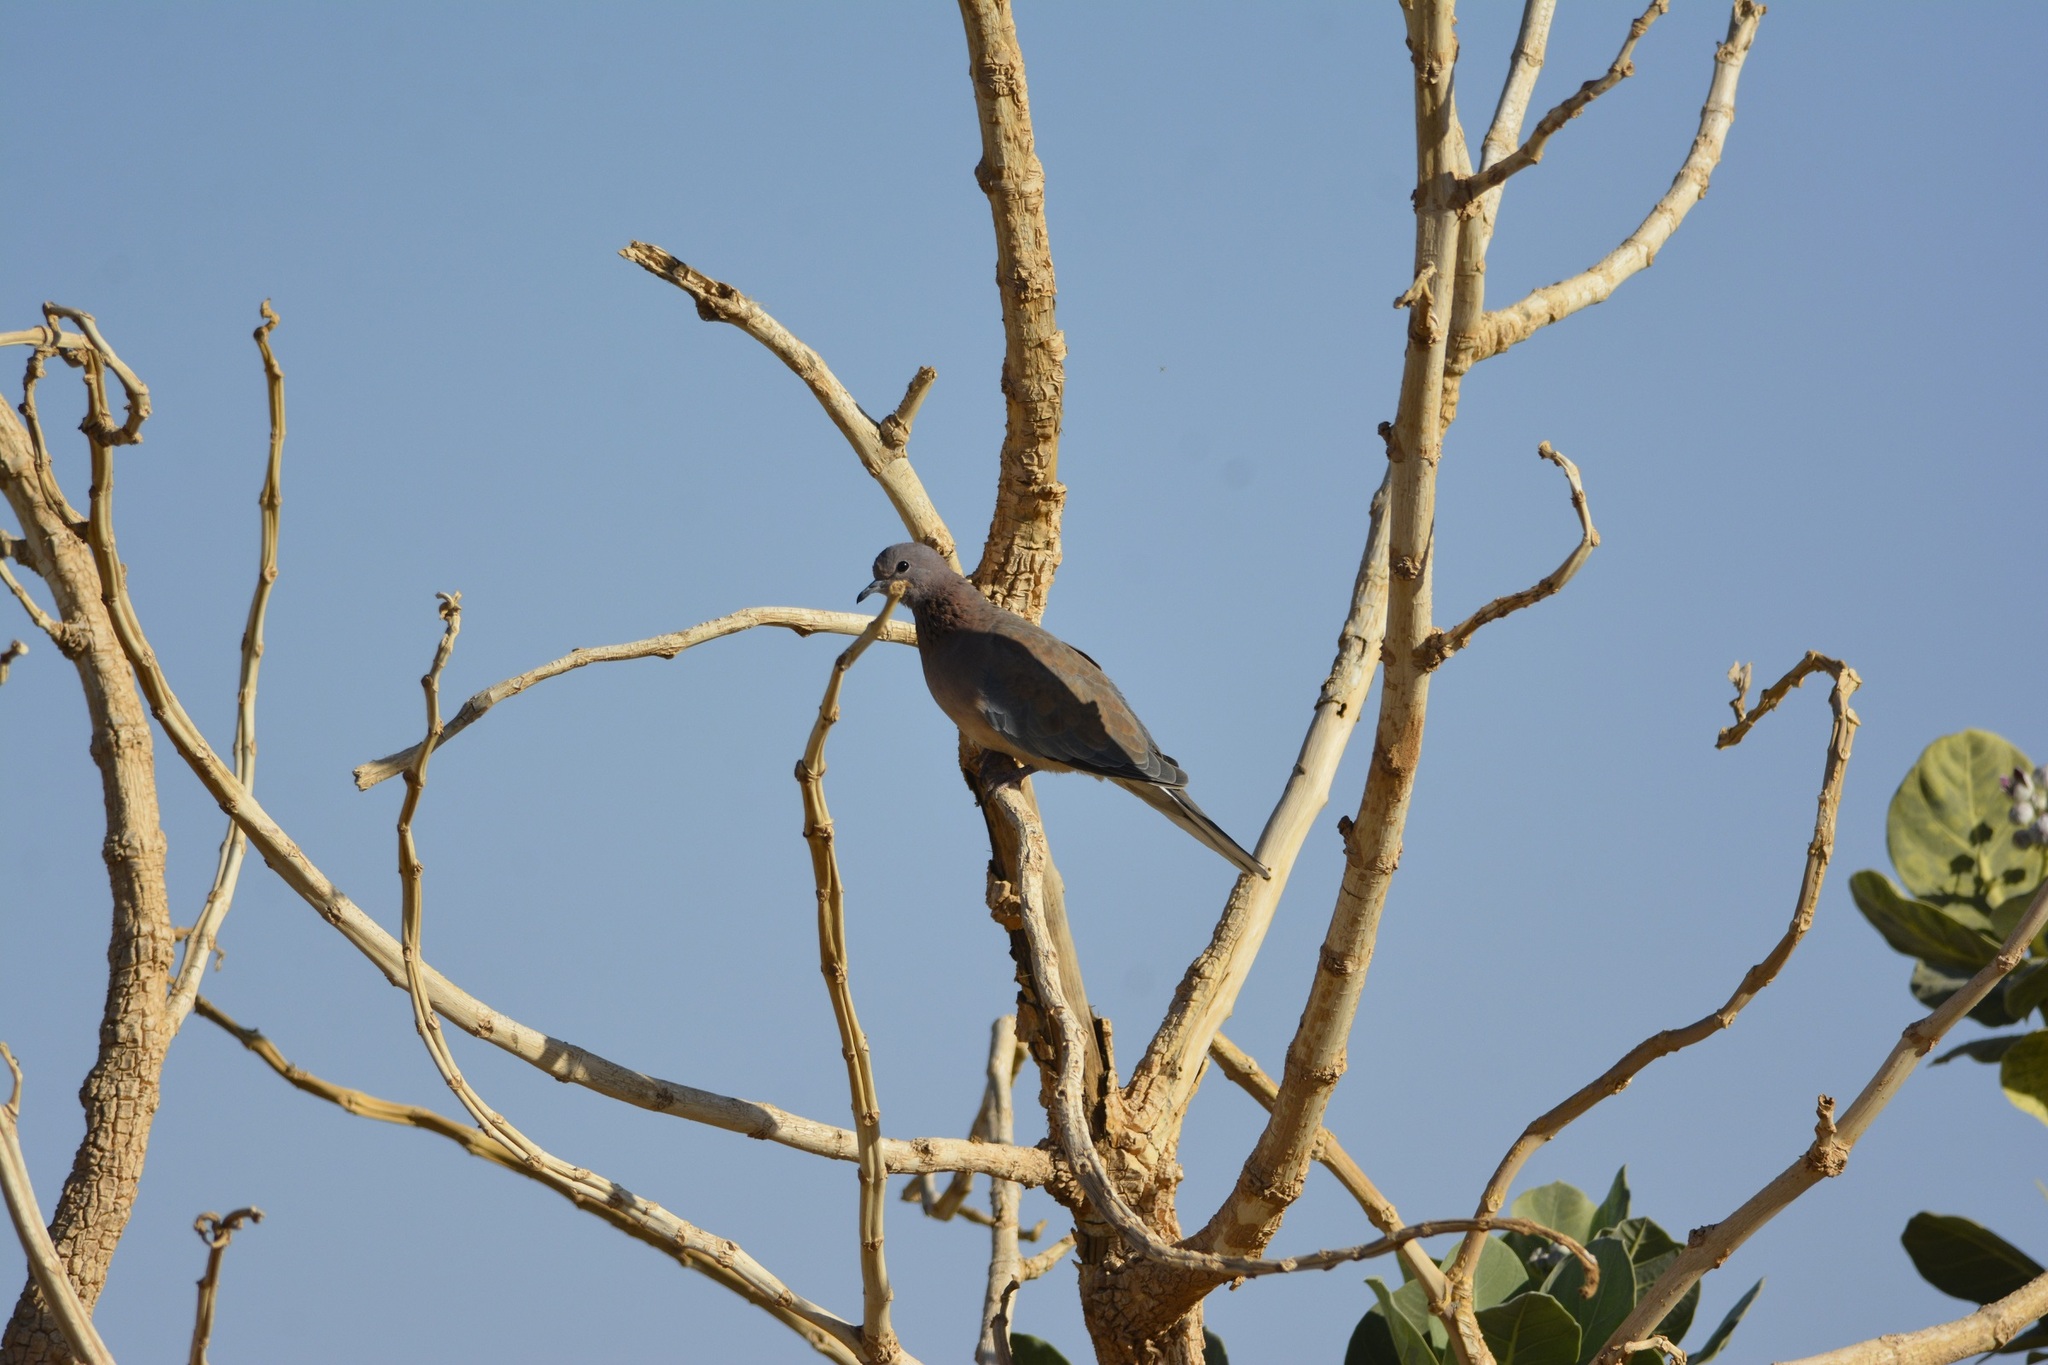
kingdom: Animalia
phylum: Chordata
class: Aves
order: Columbiformes
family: Columbidae
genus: Spilopelia
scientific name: Spilopelia senegalensis
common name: Laughing dove
